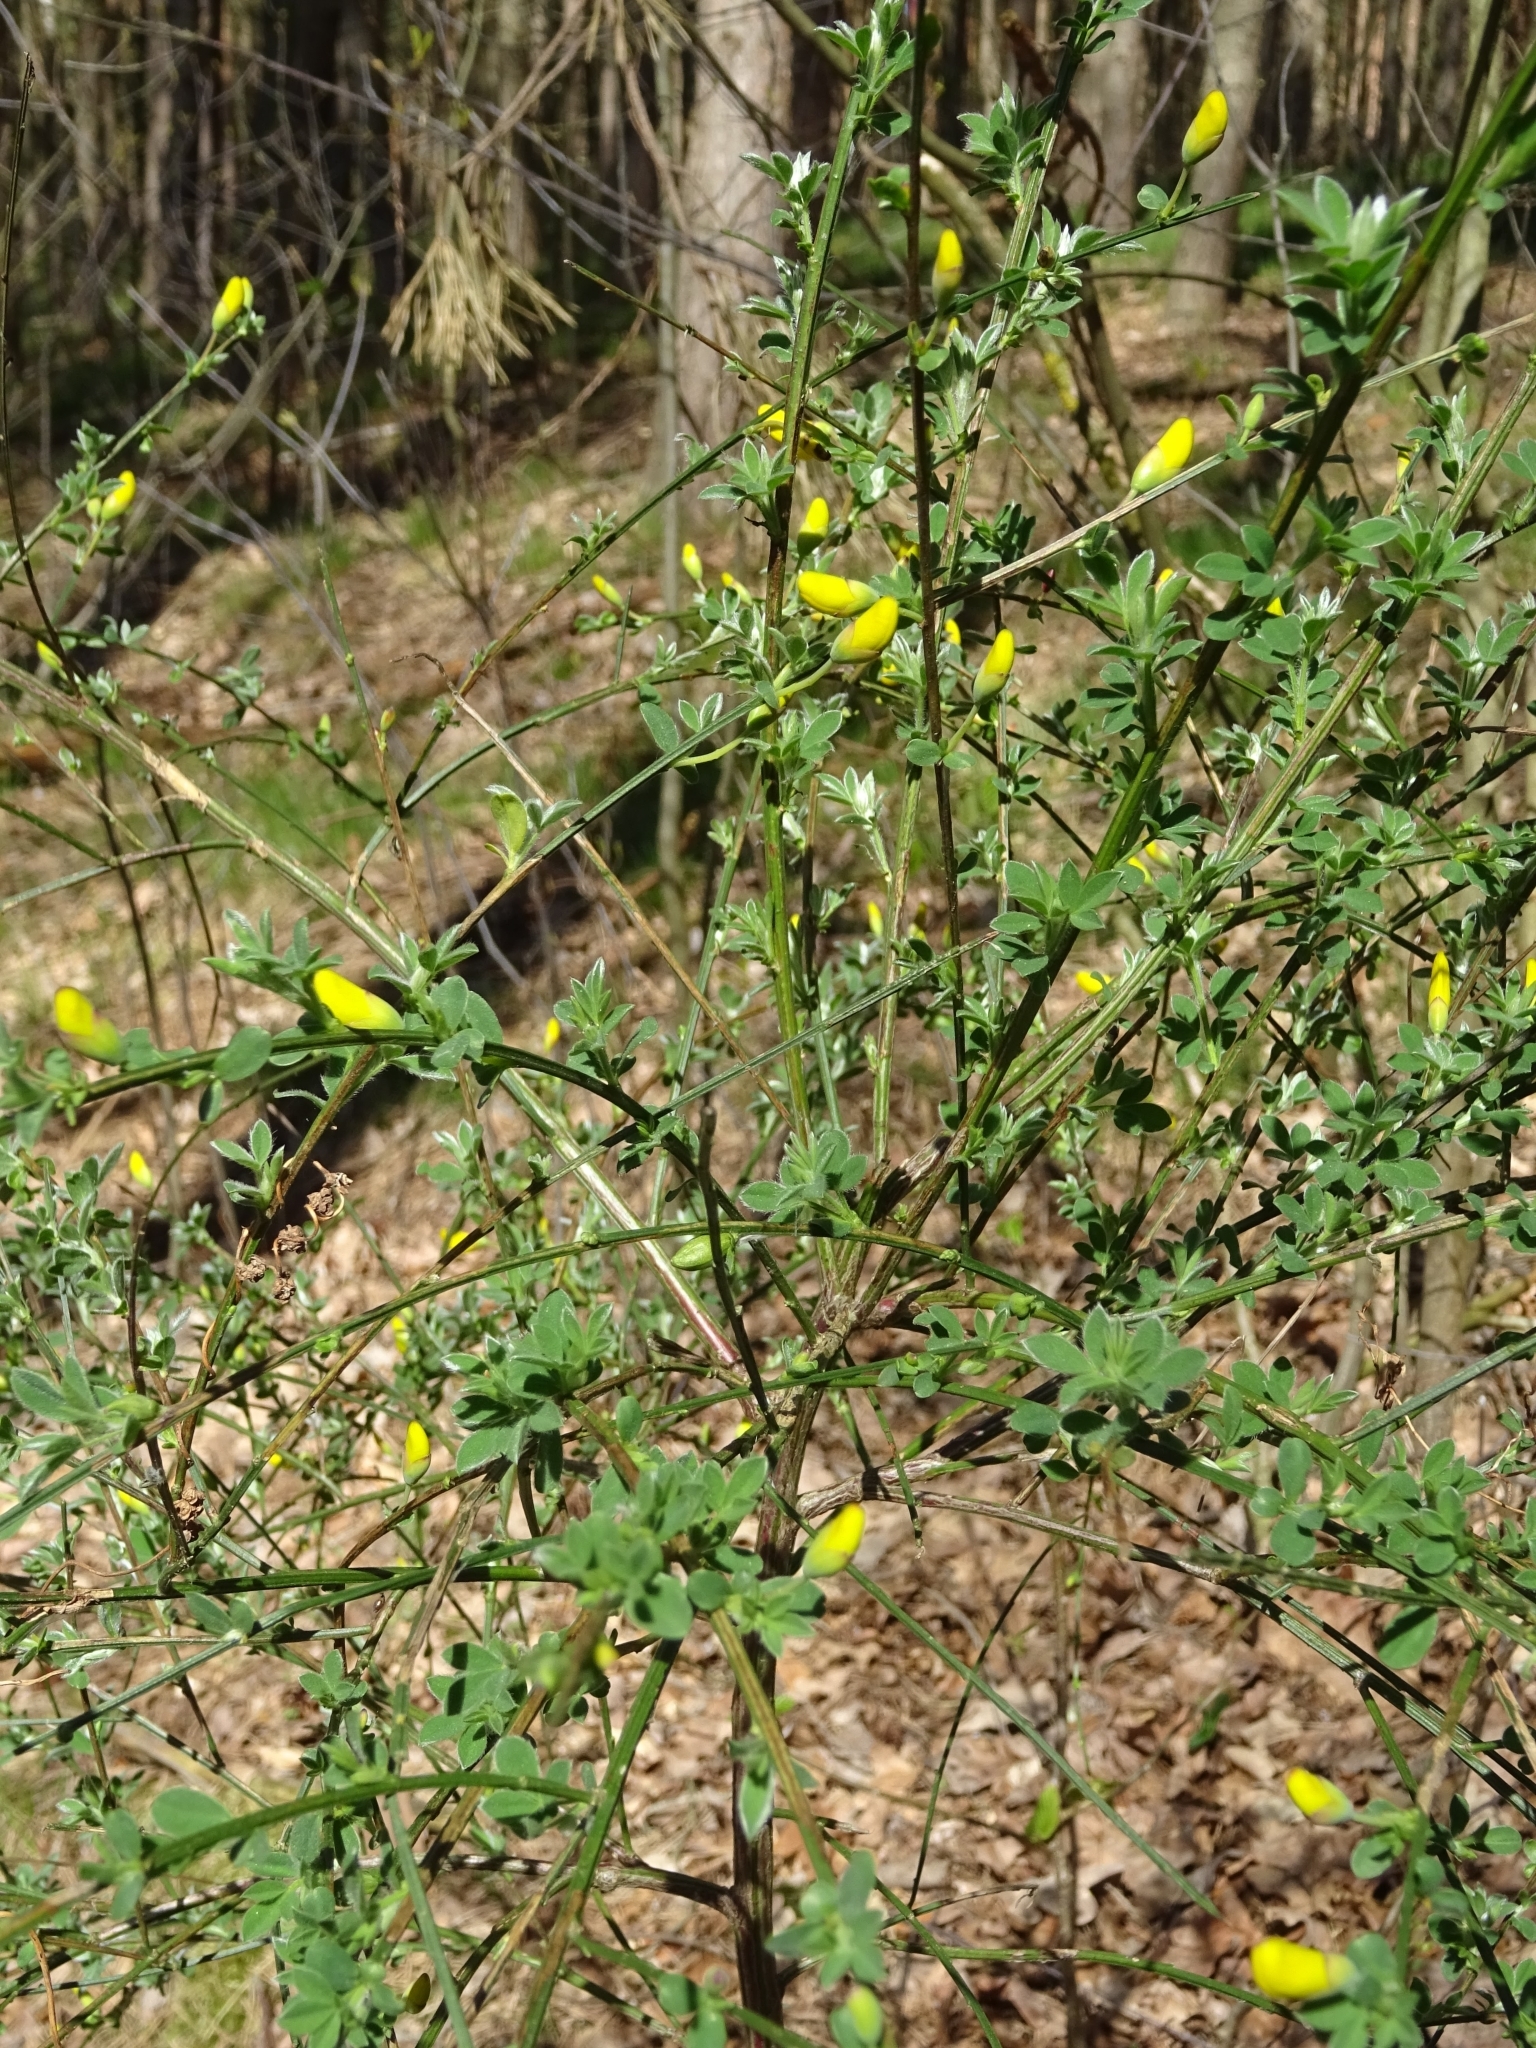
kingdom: Plantae
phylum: Tracheophyta
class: Magnoliopsida
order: Fabales
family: Fabaceae
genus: Cytisus
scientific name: Cytisus scoparius
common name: Scotch broom
